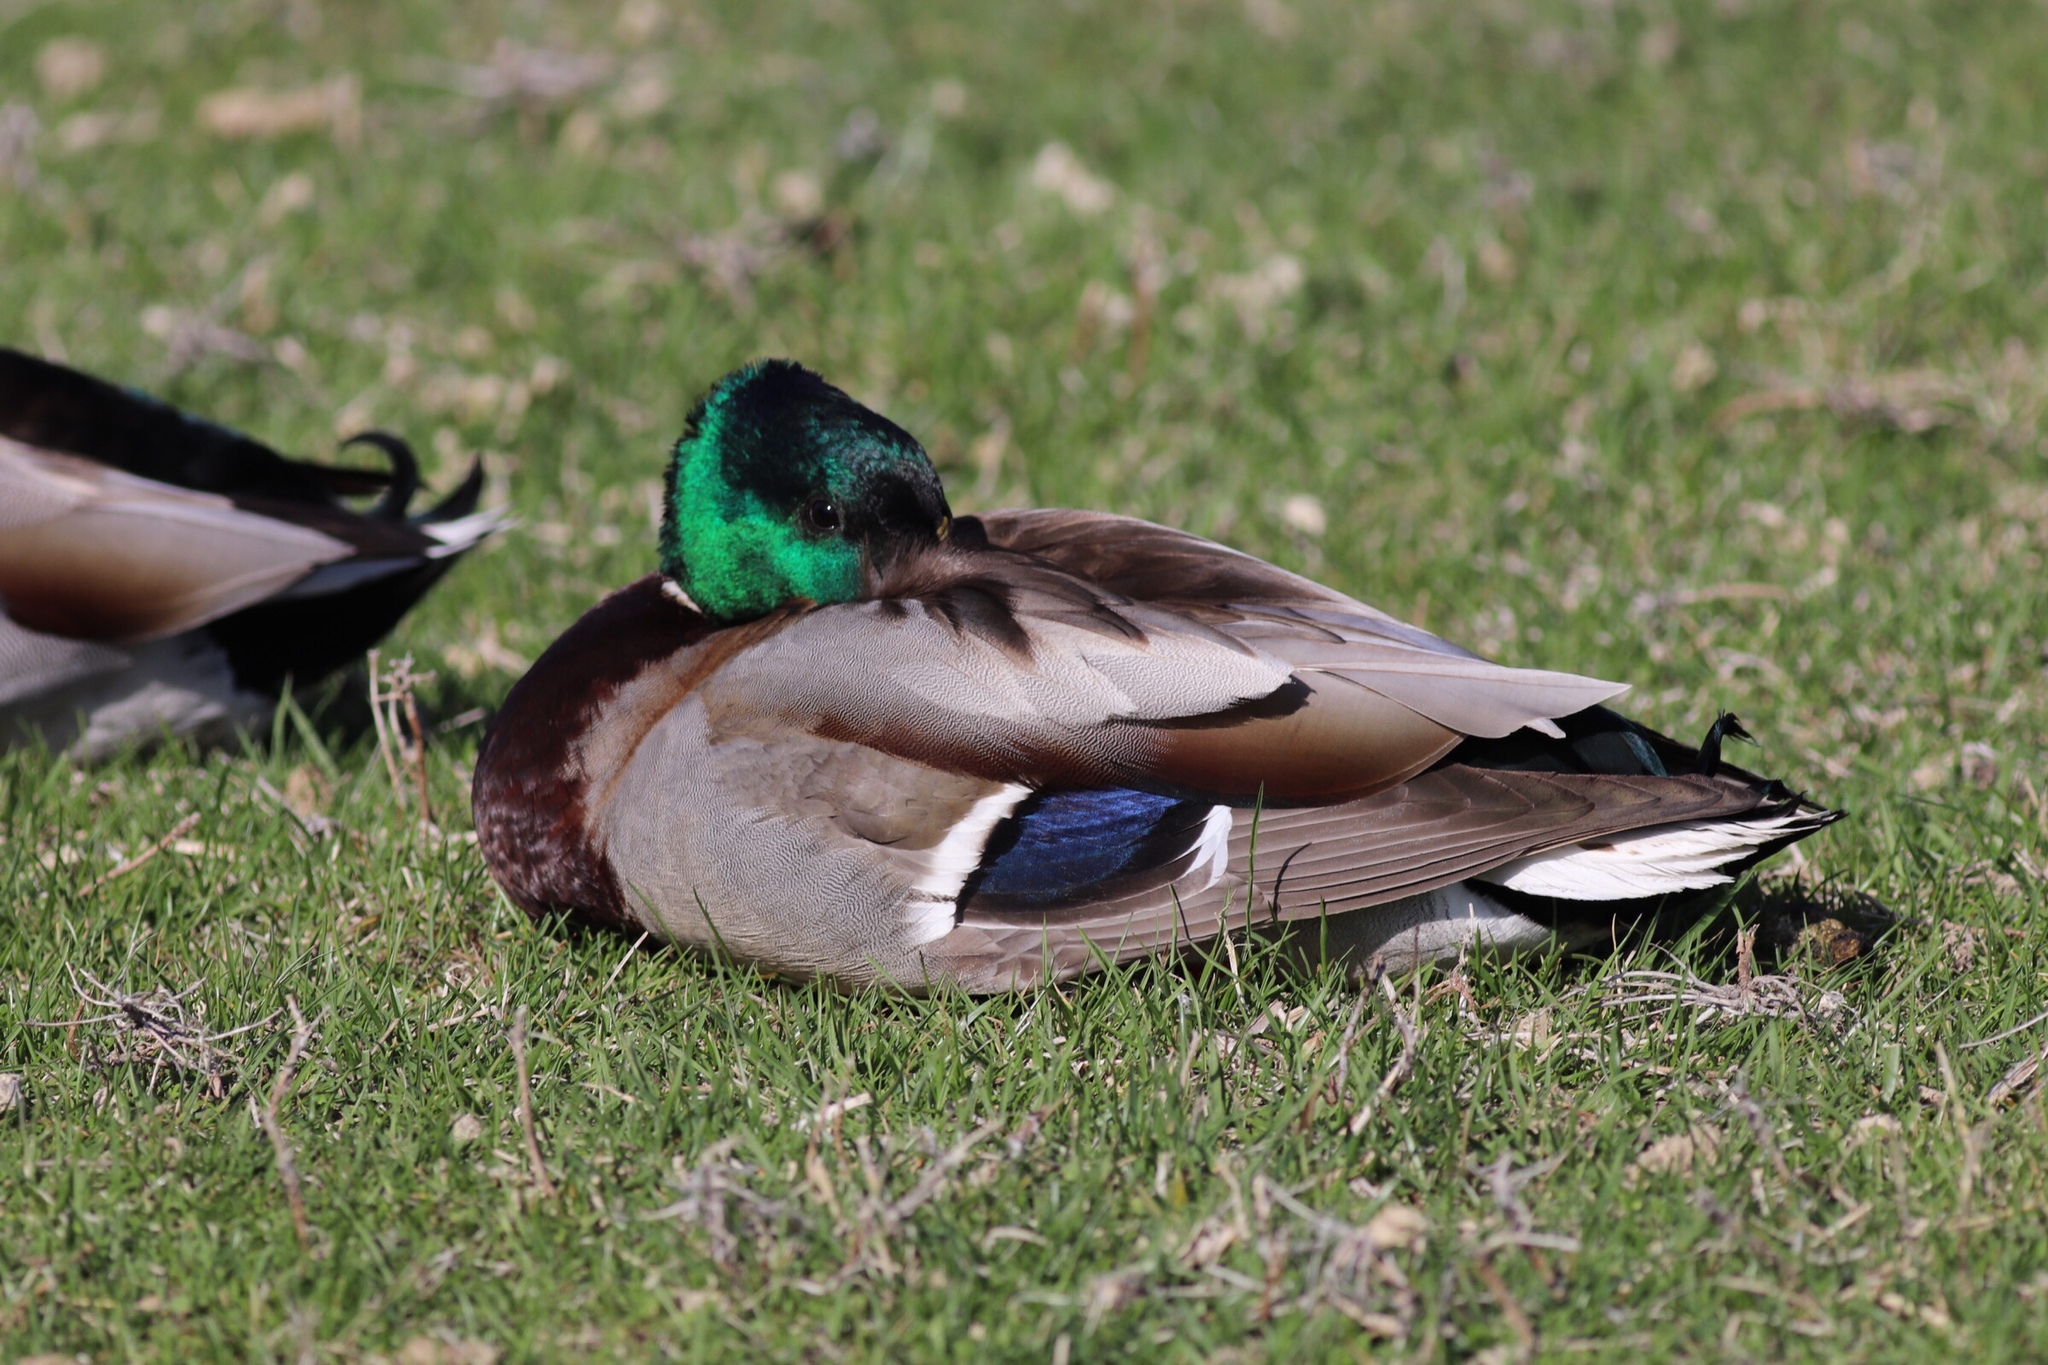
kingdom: Animalia
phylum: Chordata
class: Aves
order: Anseriformes
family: Anatidae
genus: Anas
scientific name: Anas platyrhynchos
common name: Mallard
